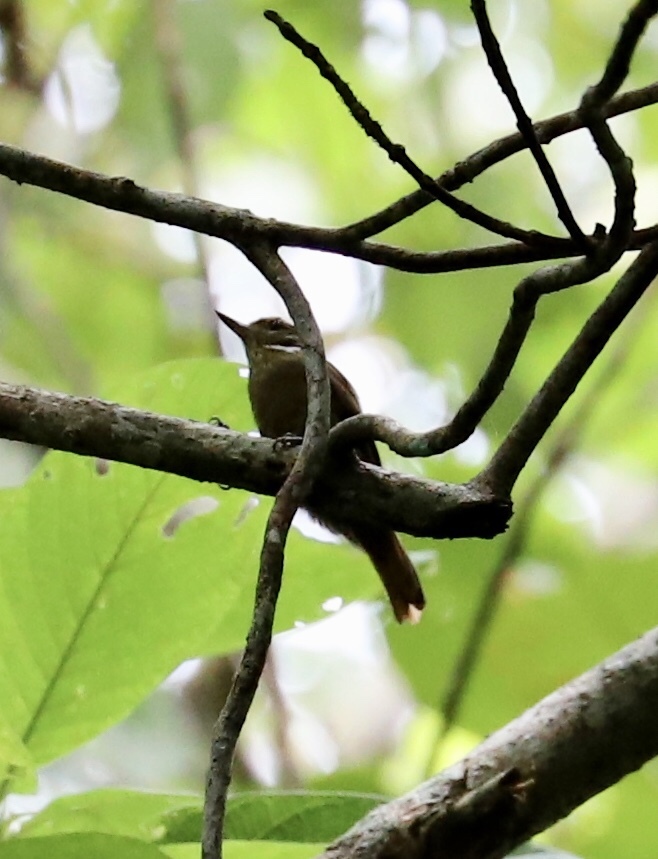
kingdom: Animalia
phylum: Chordata
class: Aves
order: Passeriformes
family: Furnariidae
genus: Xenops
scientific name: Xenops minutus
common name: Plain xenops
